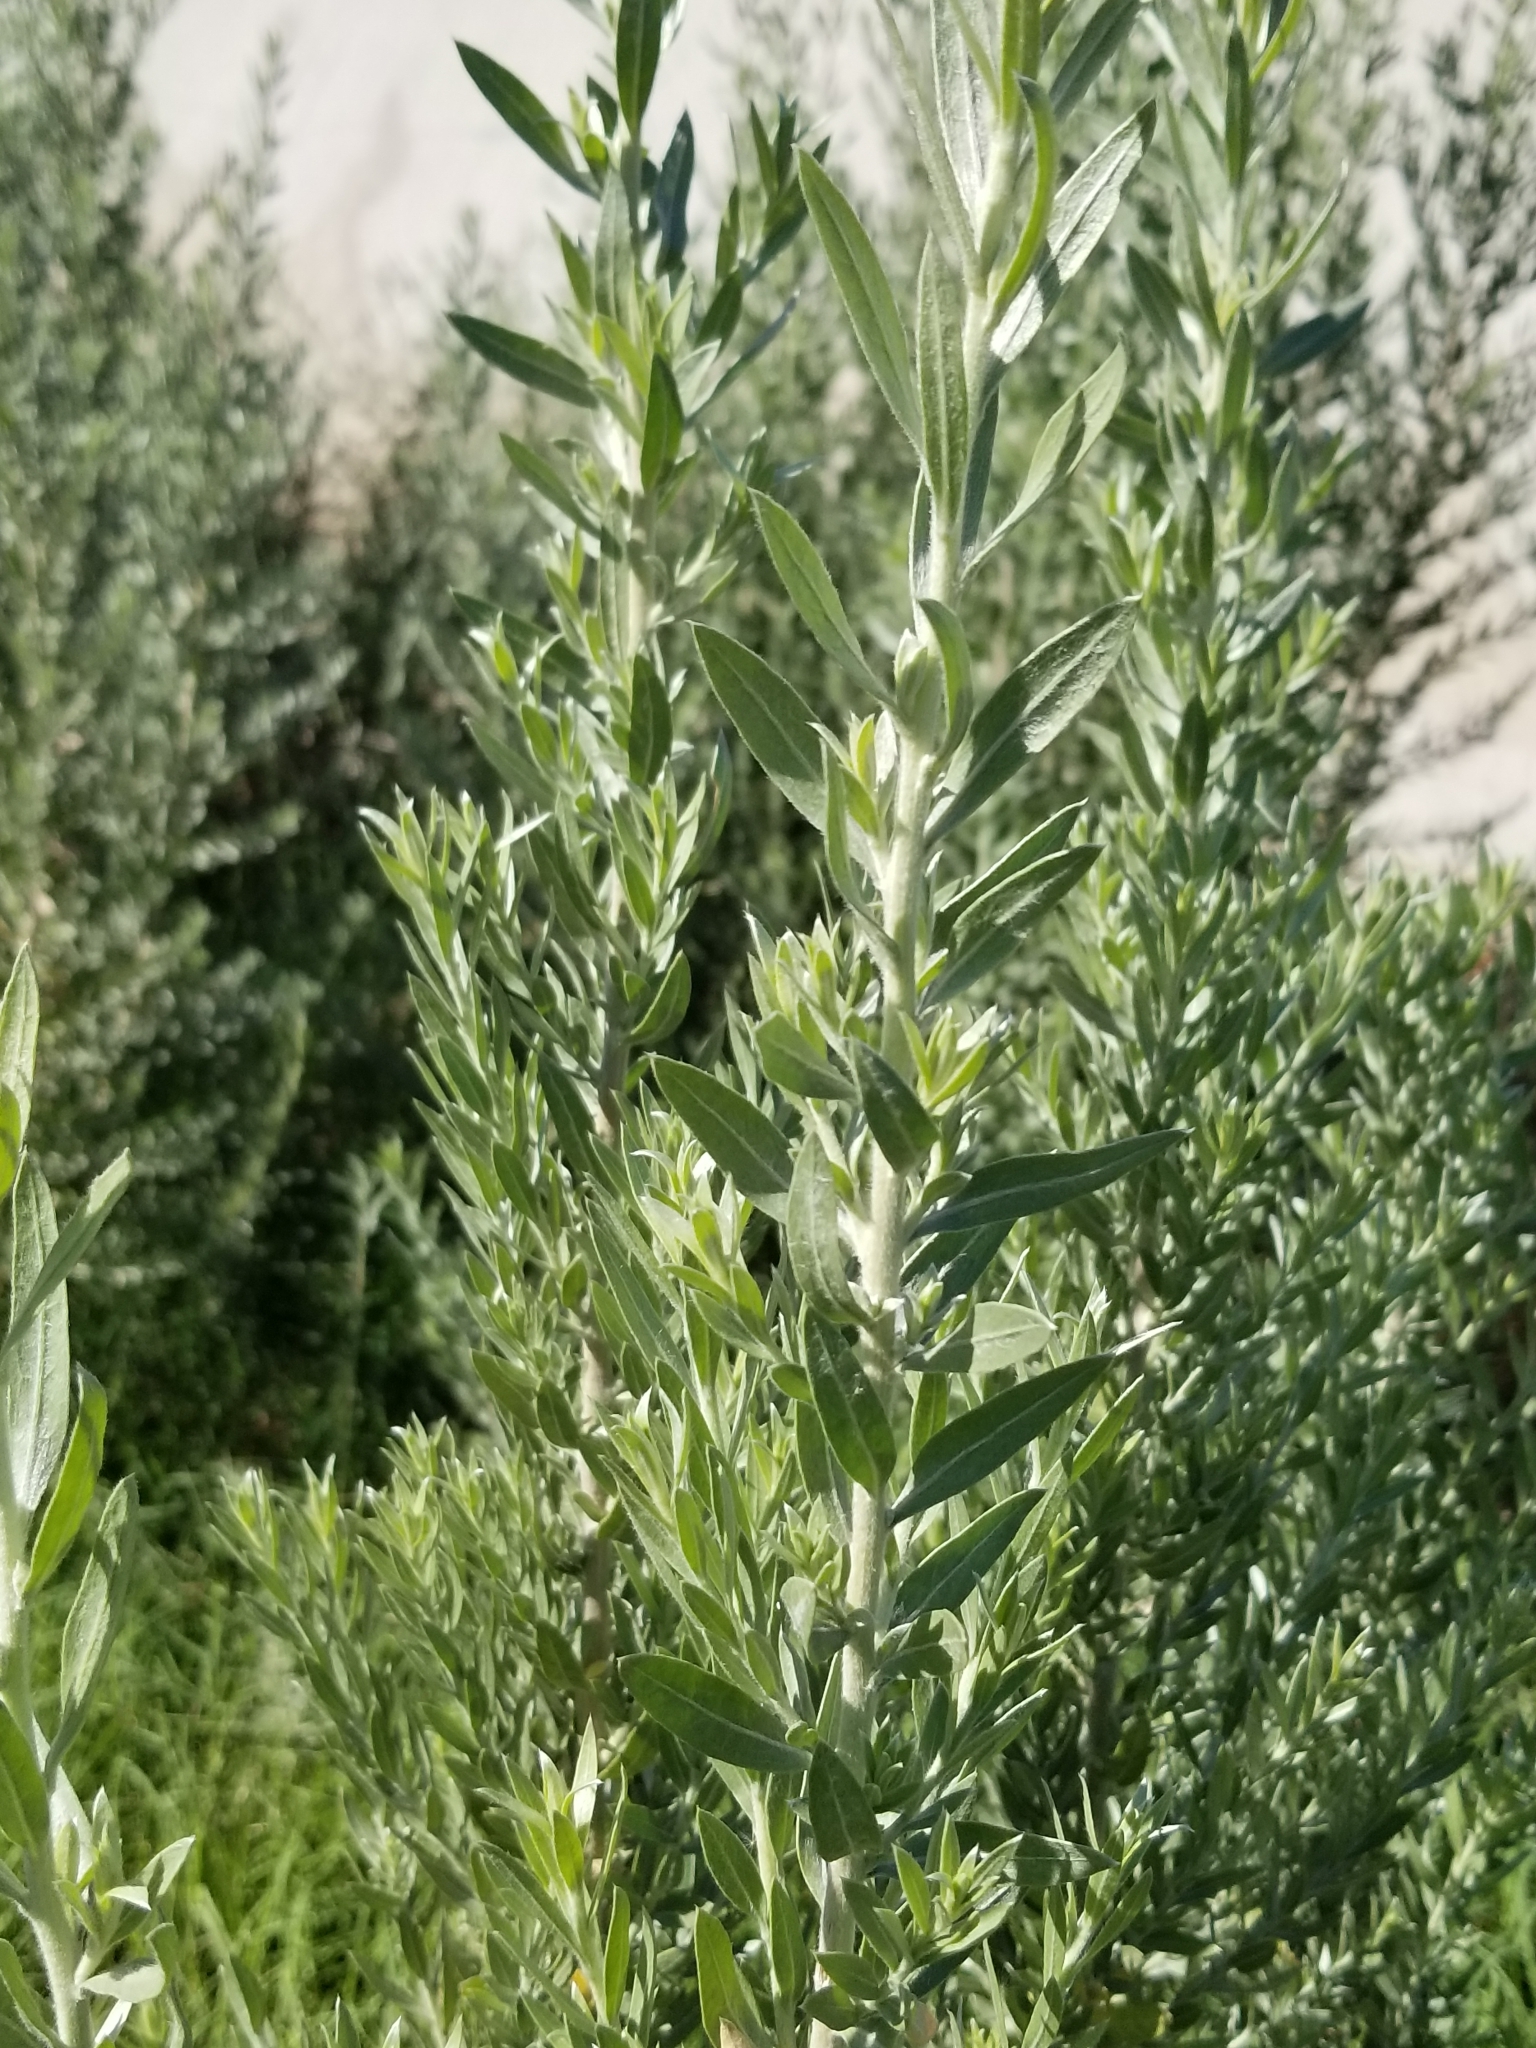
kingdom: Plantae
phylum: Tracheophyta
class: Magnoliopsida
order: Asterales
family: Asteraceae
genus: Pluchea
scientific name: Pluchea sericea
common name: Arrow-weed
